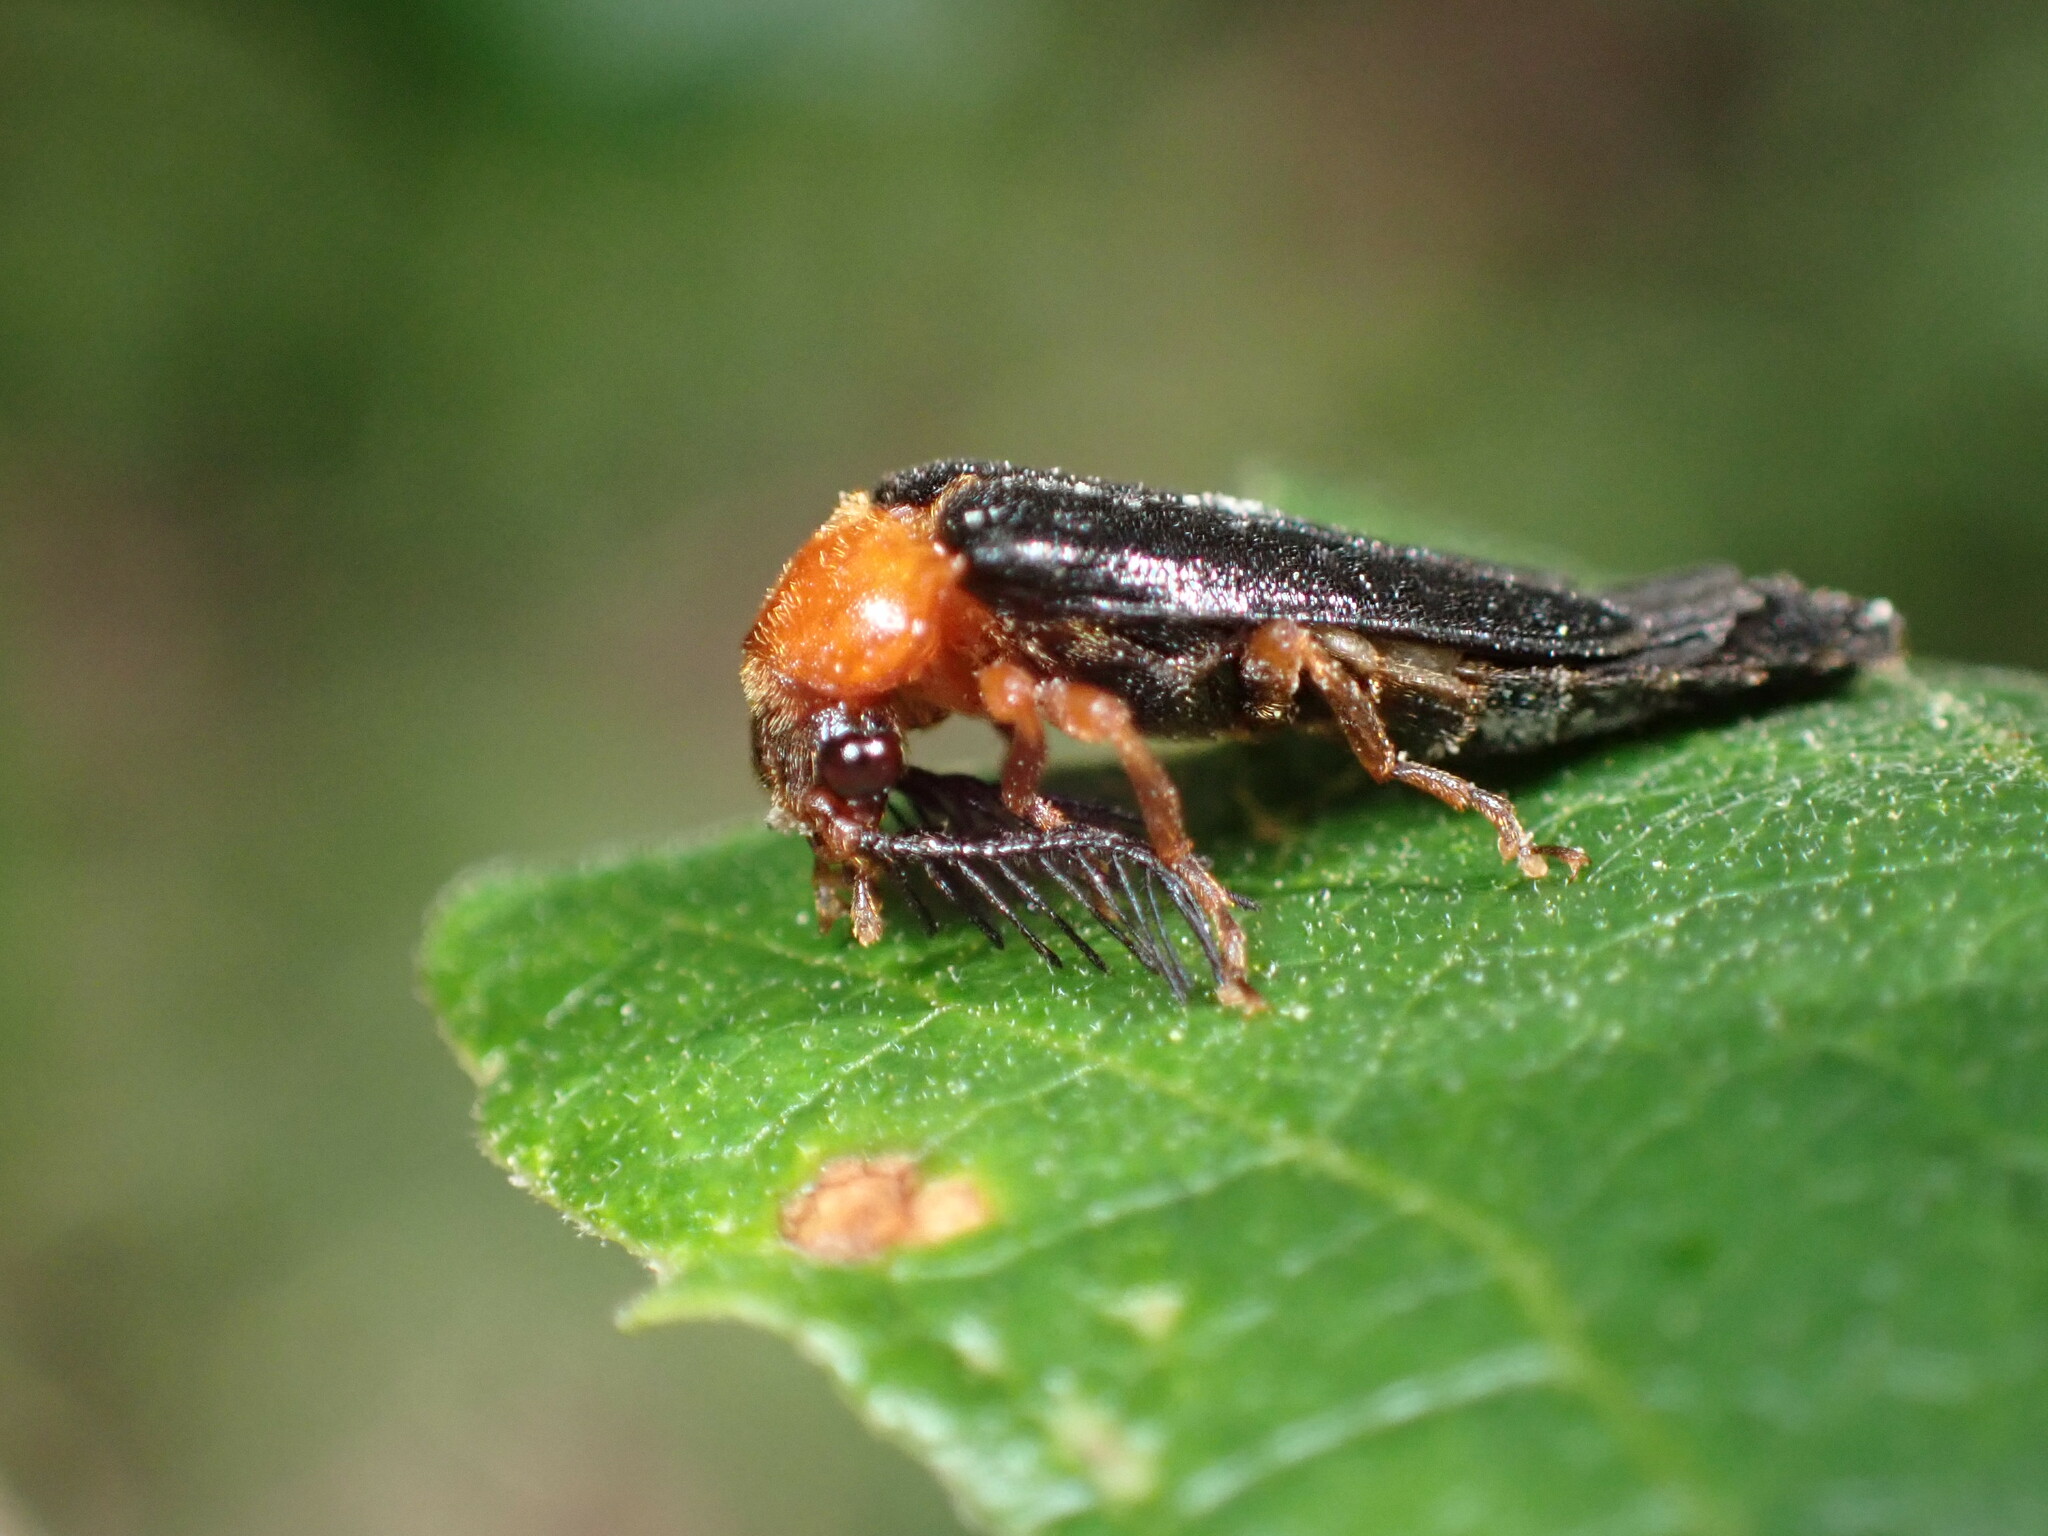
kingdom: Animalia
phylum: Arthropoda
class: Insecta
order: Coleoptera
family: Phengodidae
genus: Zarhipis
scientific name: Zarhipis integripennis
